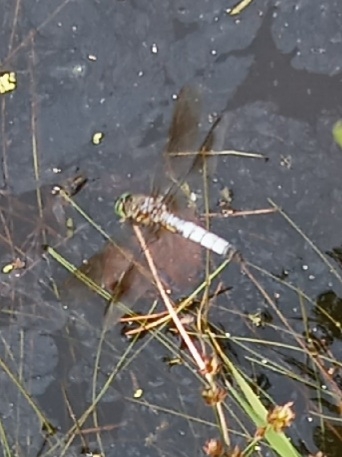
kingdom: Animalia
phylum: Arthropoda
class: Insecta
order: Odonata
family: Libellulidae
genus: Pachydiplax
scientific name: Pachydiplax longipennis
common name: Blue dasher
